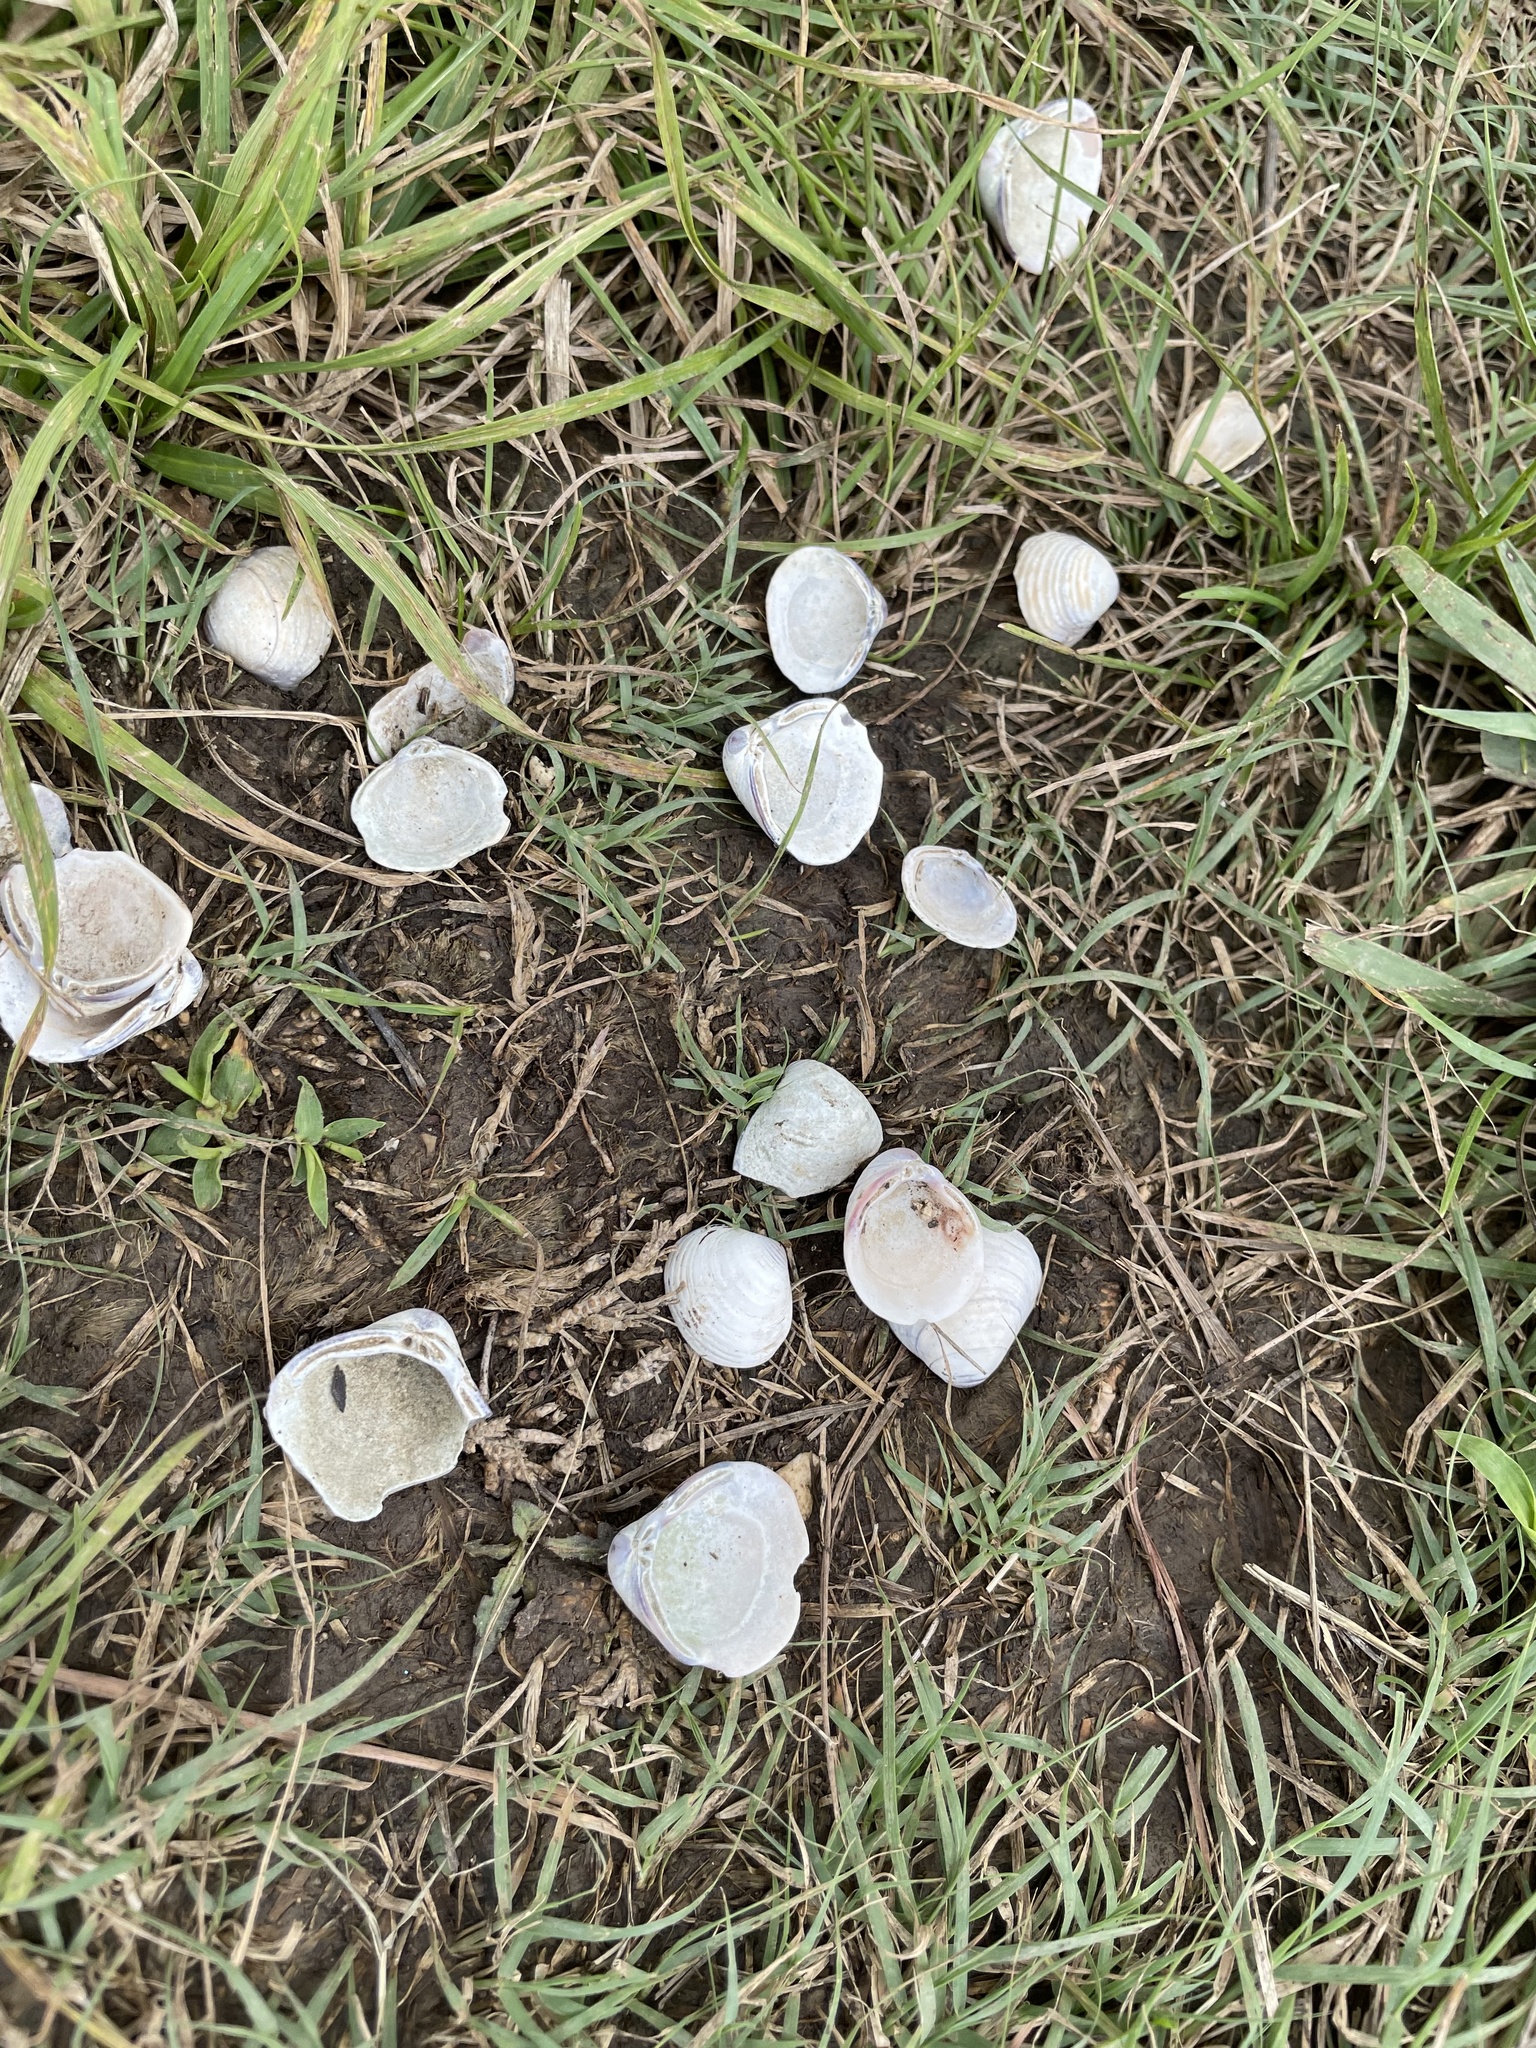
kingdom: Animalia
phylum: Mollusca
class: Bivalvia
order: Venerida
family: Cyrenidae
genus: Corbicula
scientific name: Corbicula fluminea
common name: Asian clam
